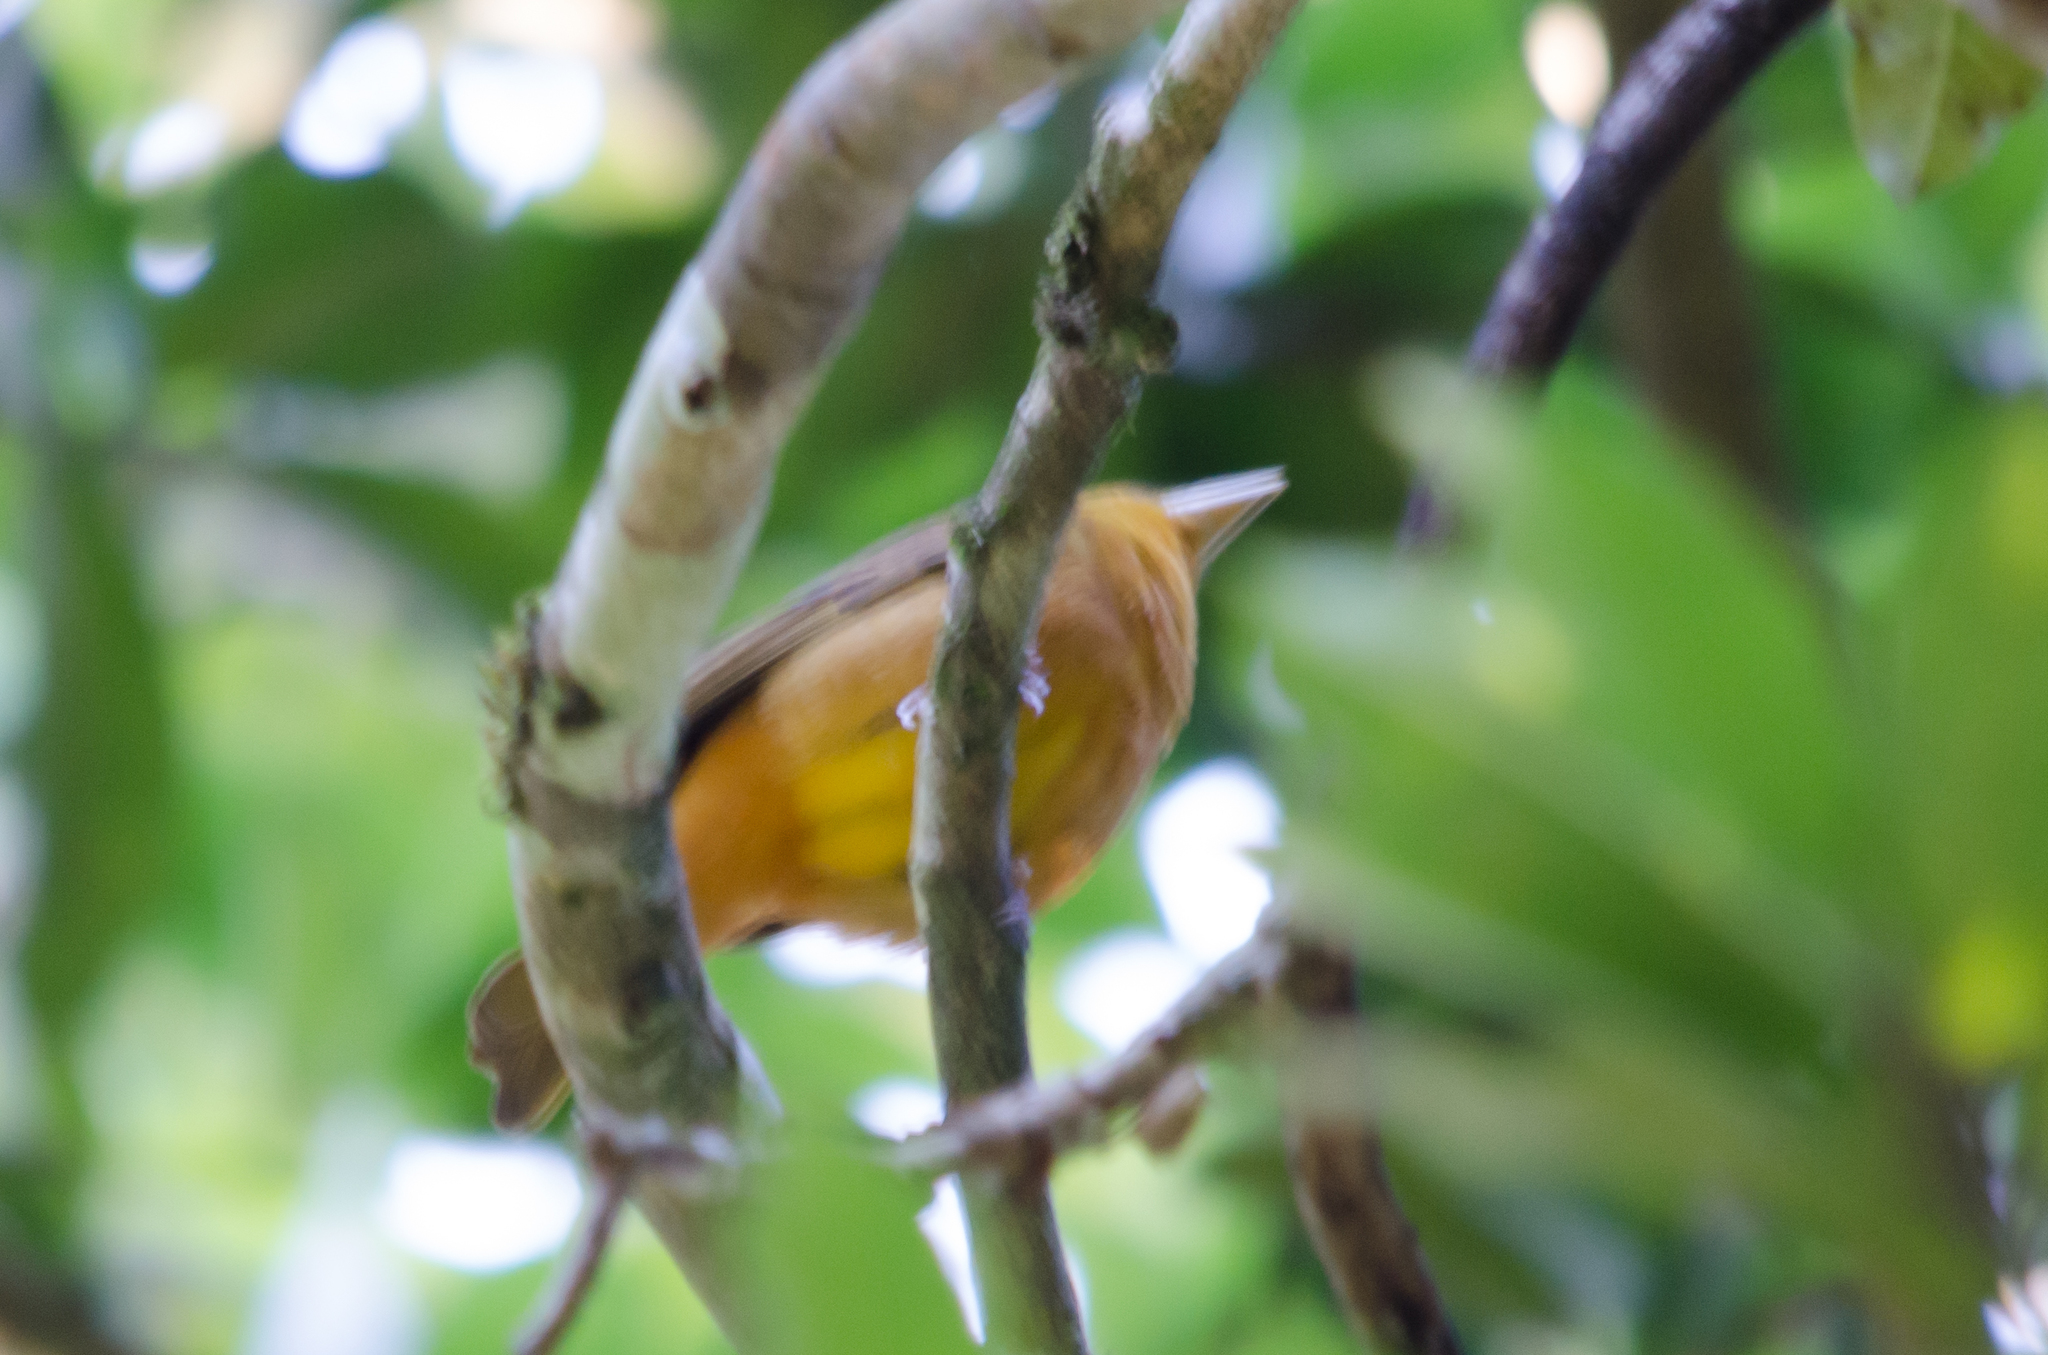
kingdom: Animalia
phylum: Chordata
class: Aves
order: Passeriformes
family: Icteridae
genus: Icterus
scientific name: Icterus galbula
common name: Baltimore oriole
